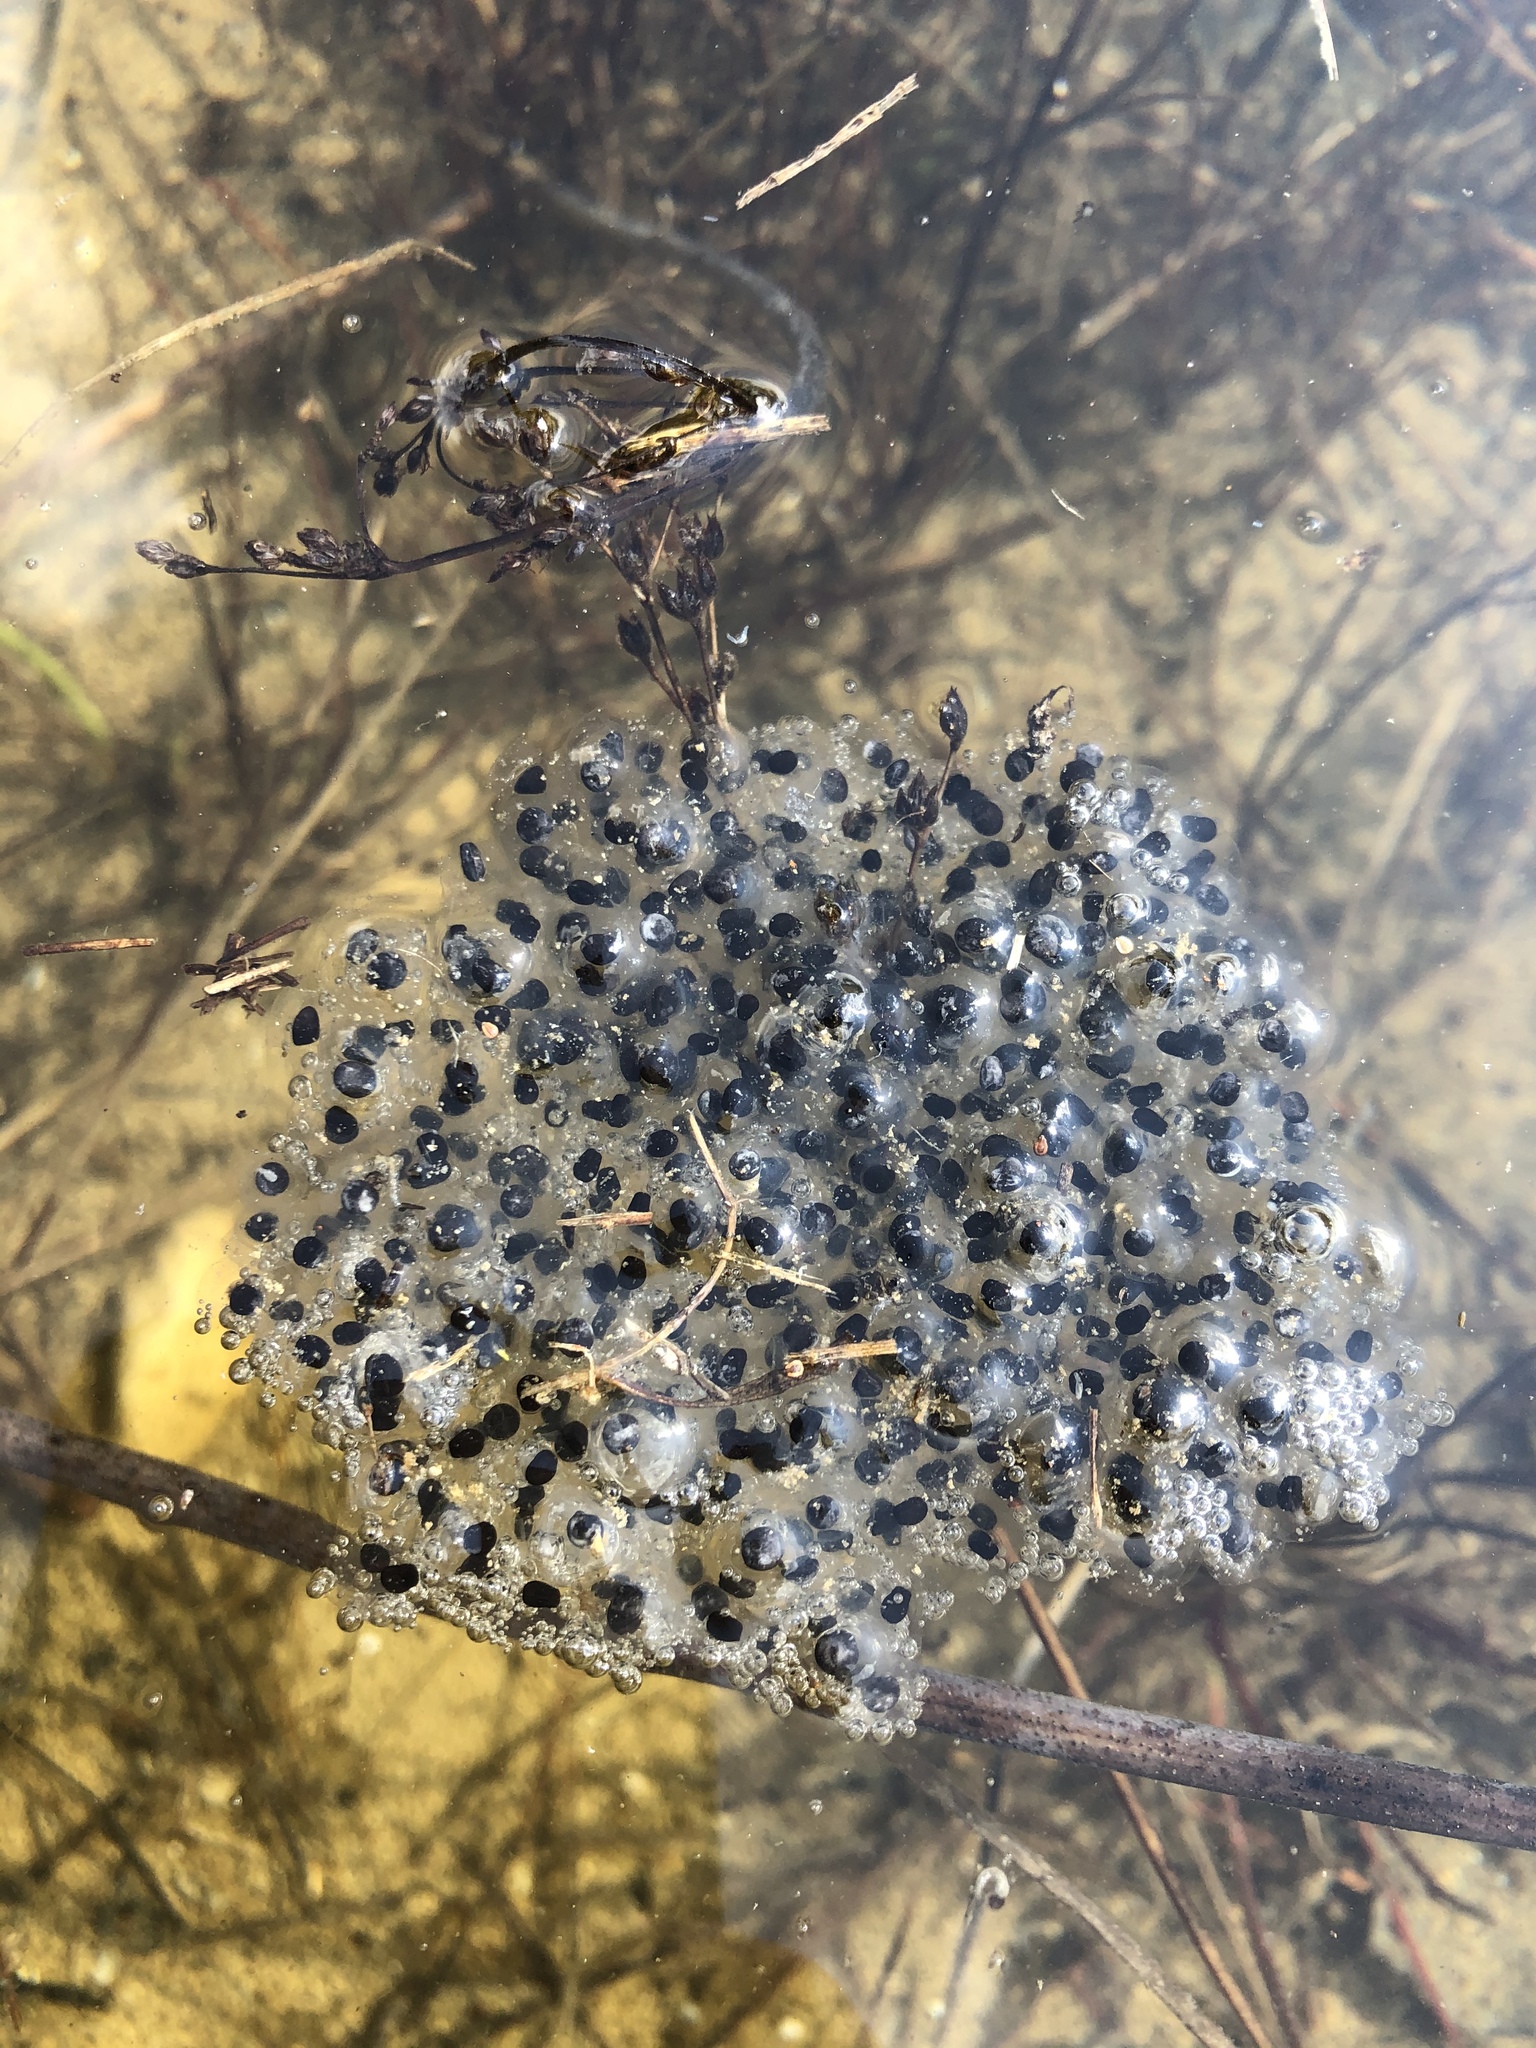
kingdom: Animalia
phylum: Chordata
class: Amphibia
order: Anura
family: Ranidae
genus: Lithobates
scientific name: Lithobates sylvaticus
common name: Wood frog
